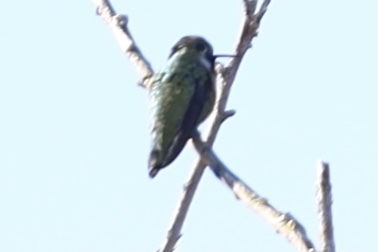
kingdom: Animalia
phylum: Chordata
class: Aves
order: Apodiformes
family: Trochilidae
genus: Calypte
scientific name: Calypte anna
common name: Anna's hummingbird
